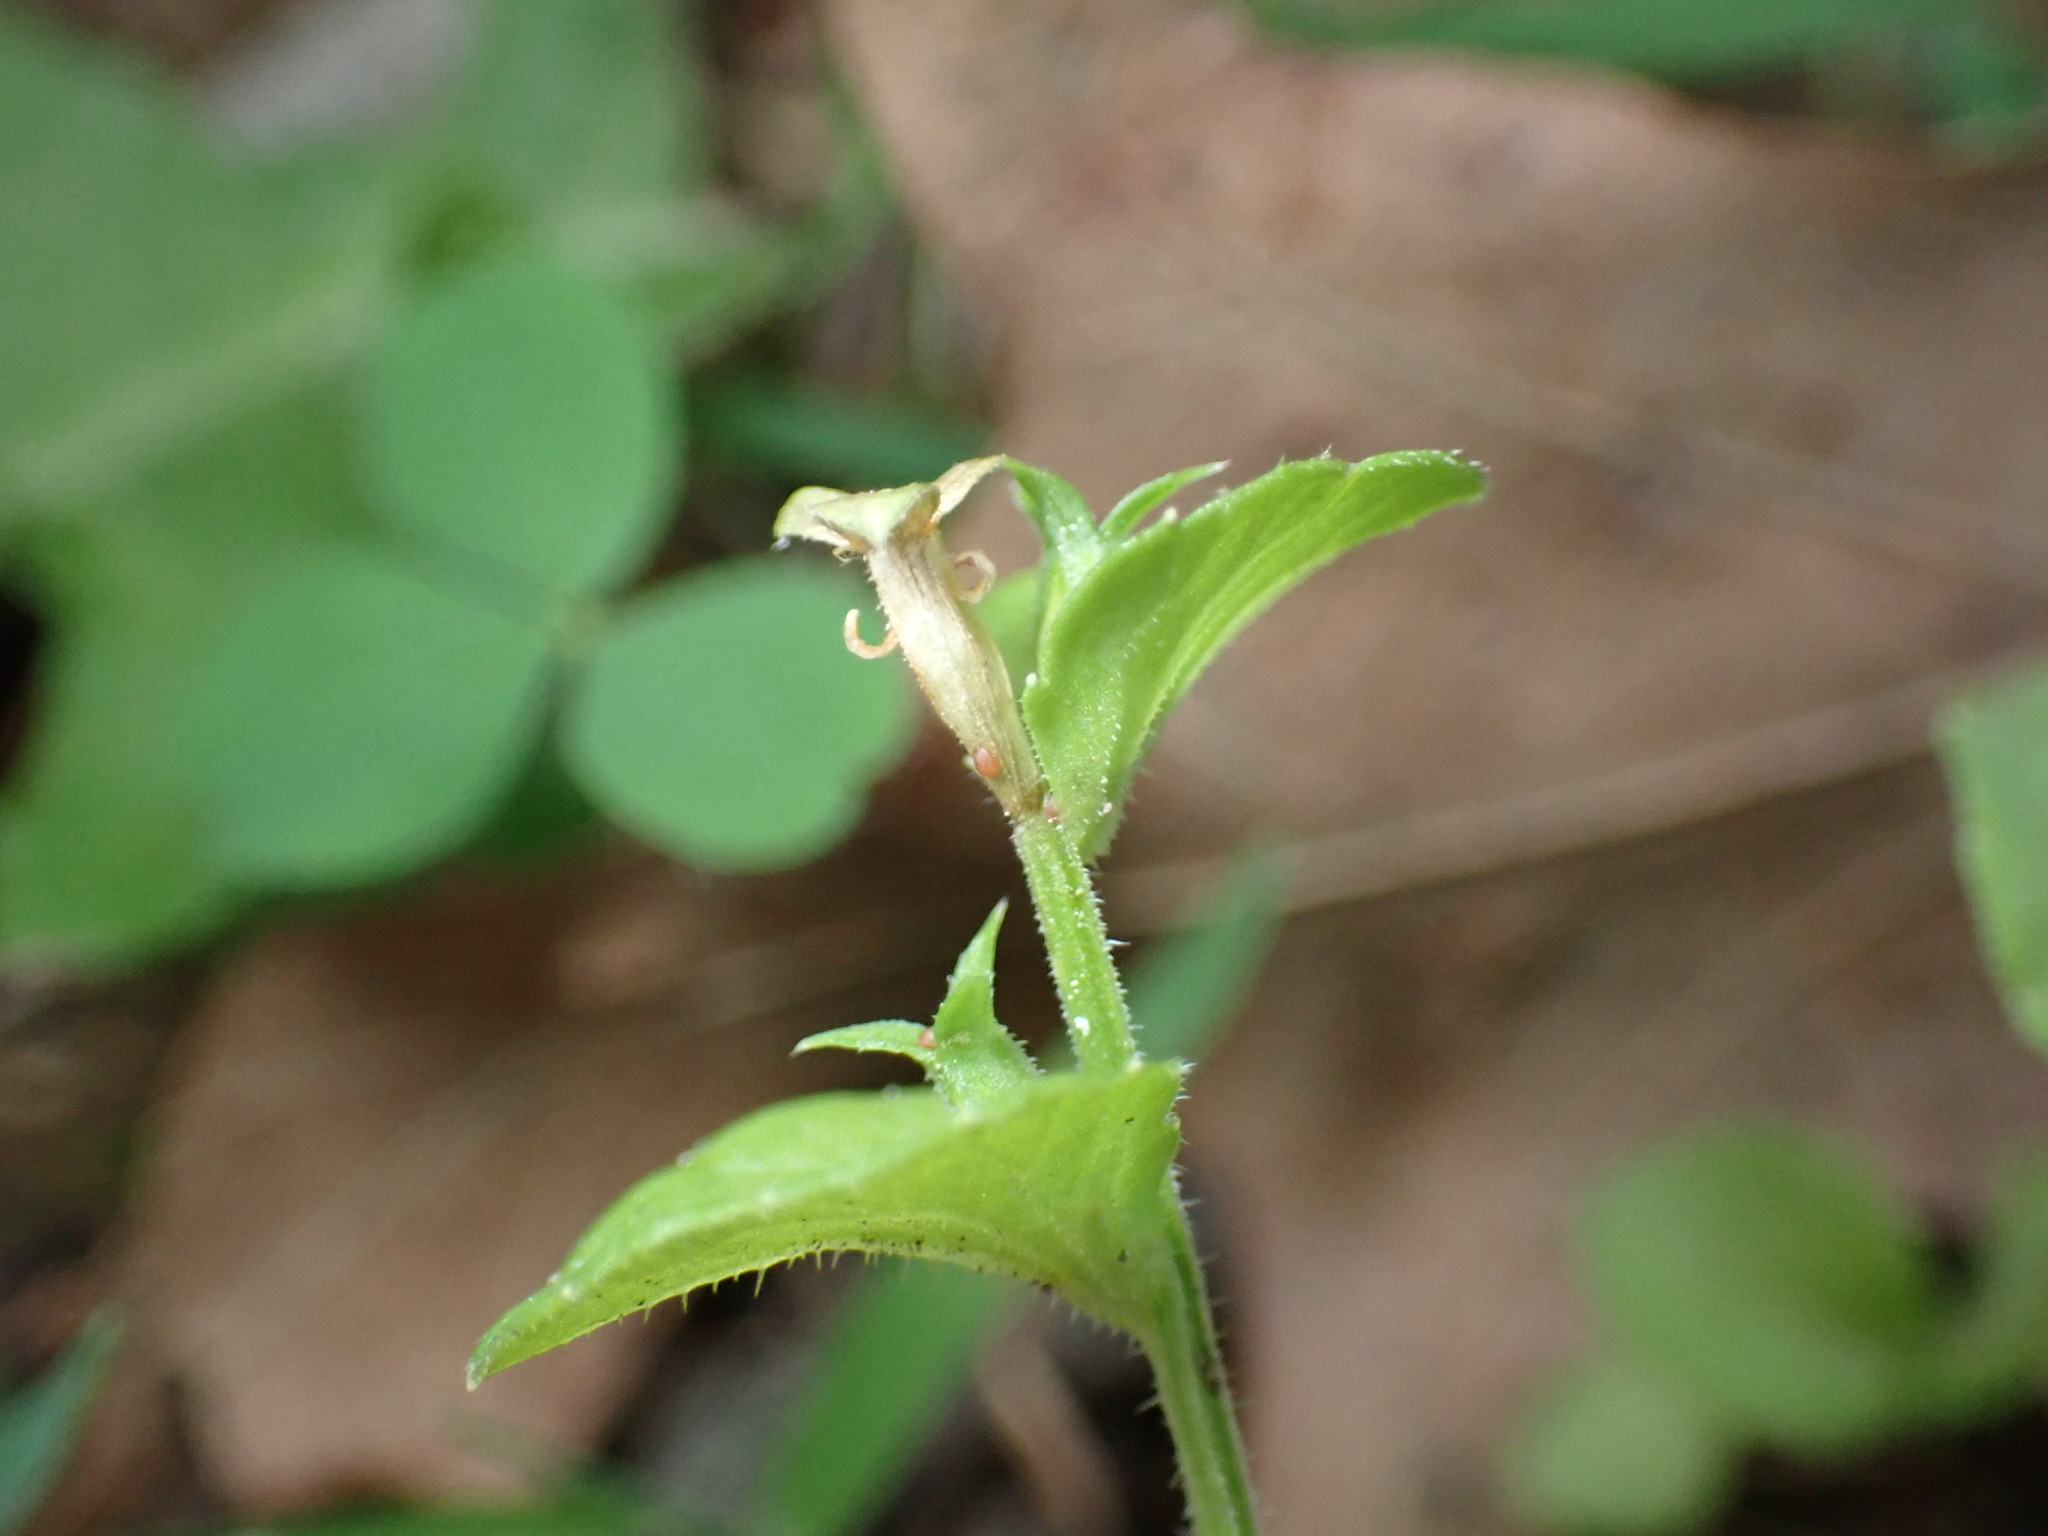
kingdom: Plantae
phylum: Tracheophyta
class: Magnoliopsida
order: Asterales
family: Campanulaceae
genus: Triodanis
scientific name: Triodanis perfoliata
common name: Clasping venus' looking-glass
